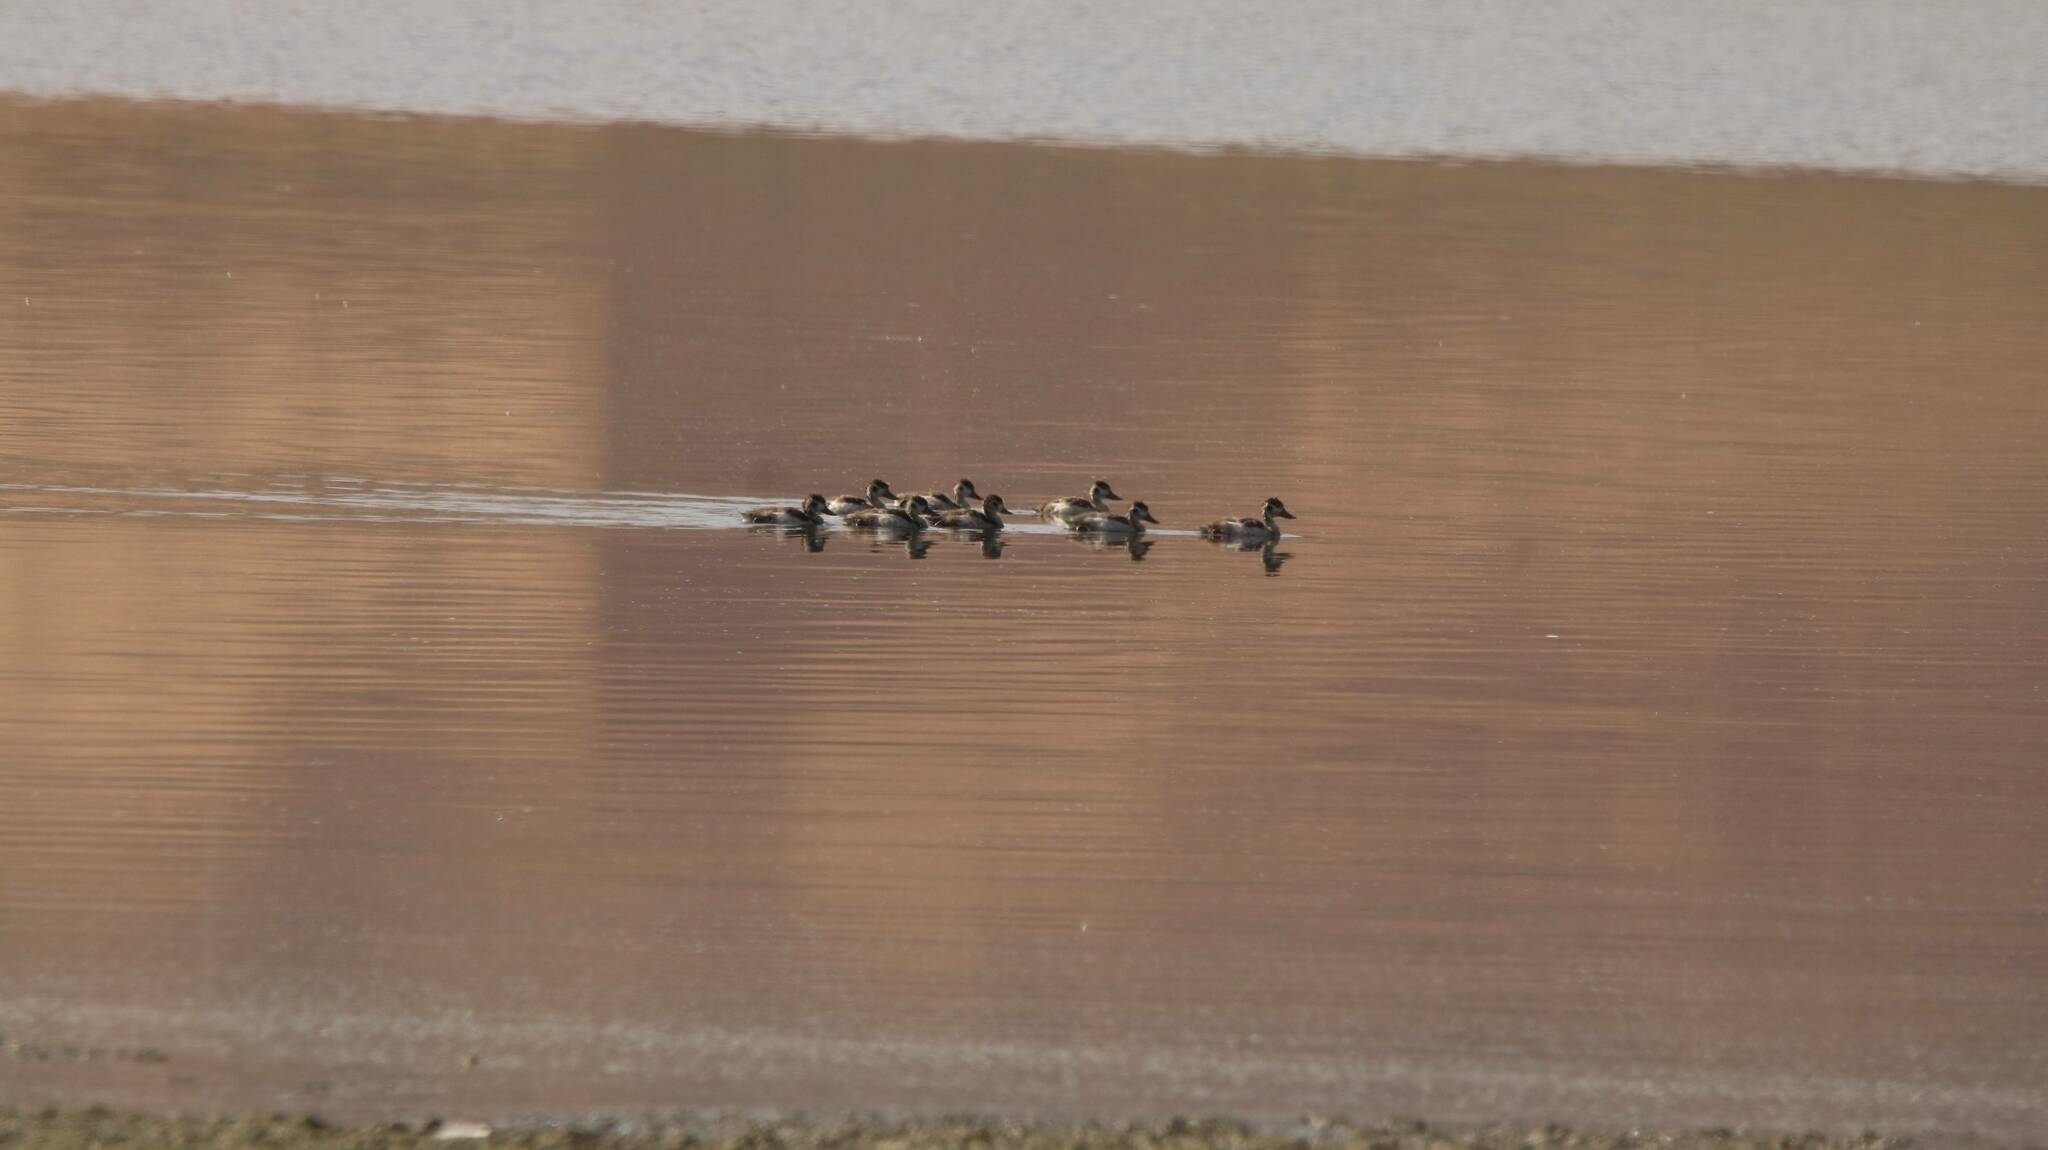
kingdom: Animalia
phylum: Chordata
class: Aves
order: Anseriformes
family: Anatidae
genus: Tadorna
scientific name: Tadorna tadorna
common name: Common shelduck
